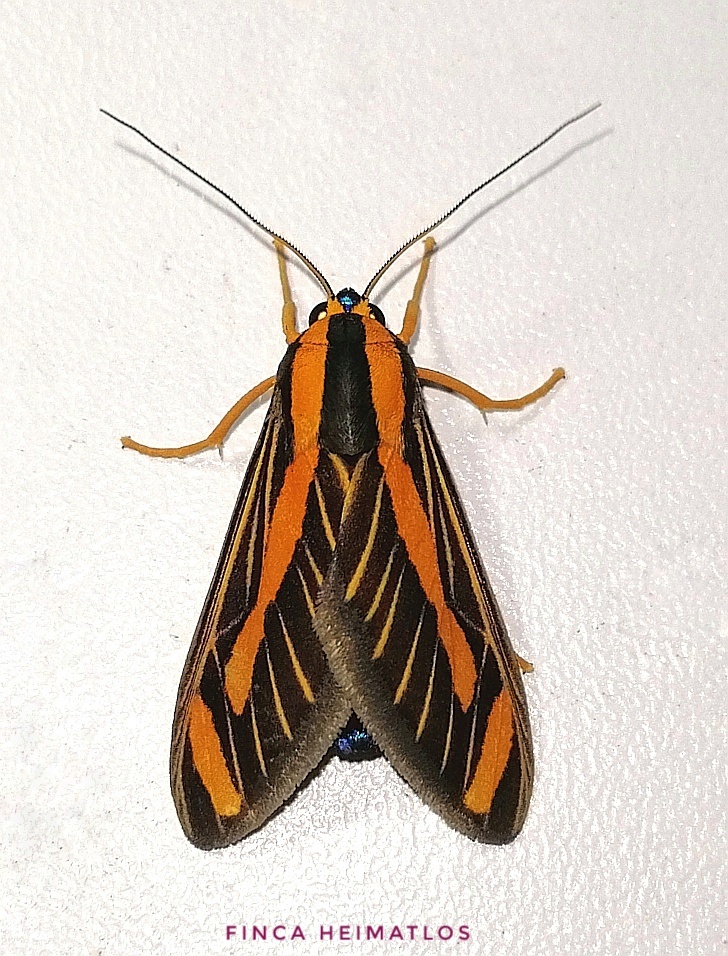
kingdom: Animalia
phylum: Arthropoda
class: Insecta
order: Lepidoptera
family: Erebidae
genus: Ormetica
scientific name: Ormetica sypilus
